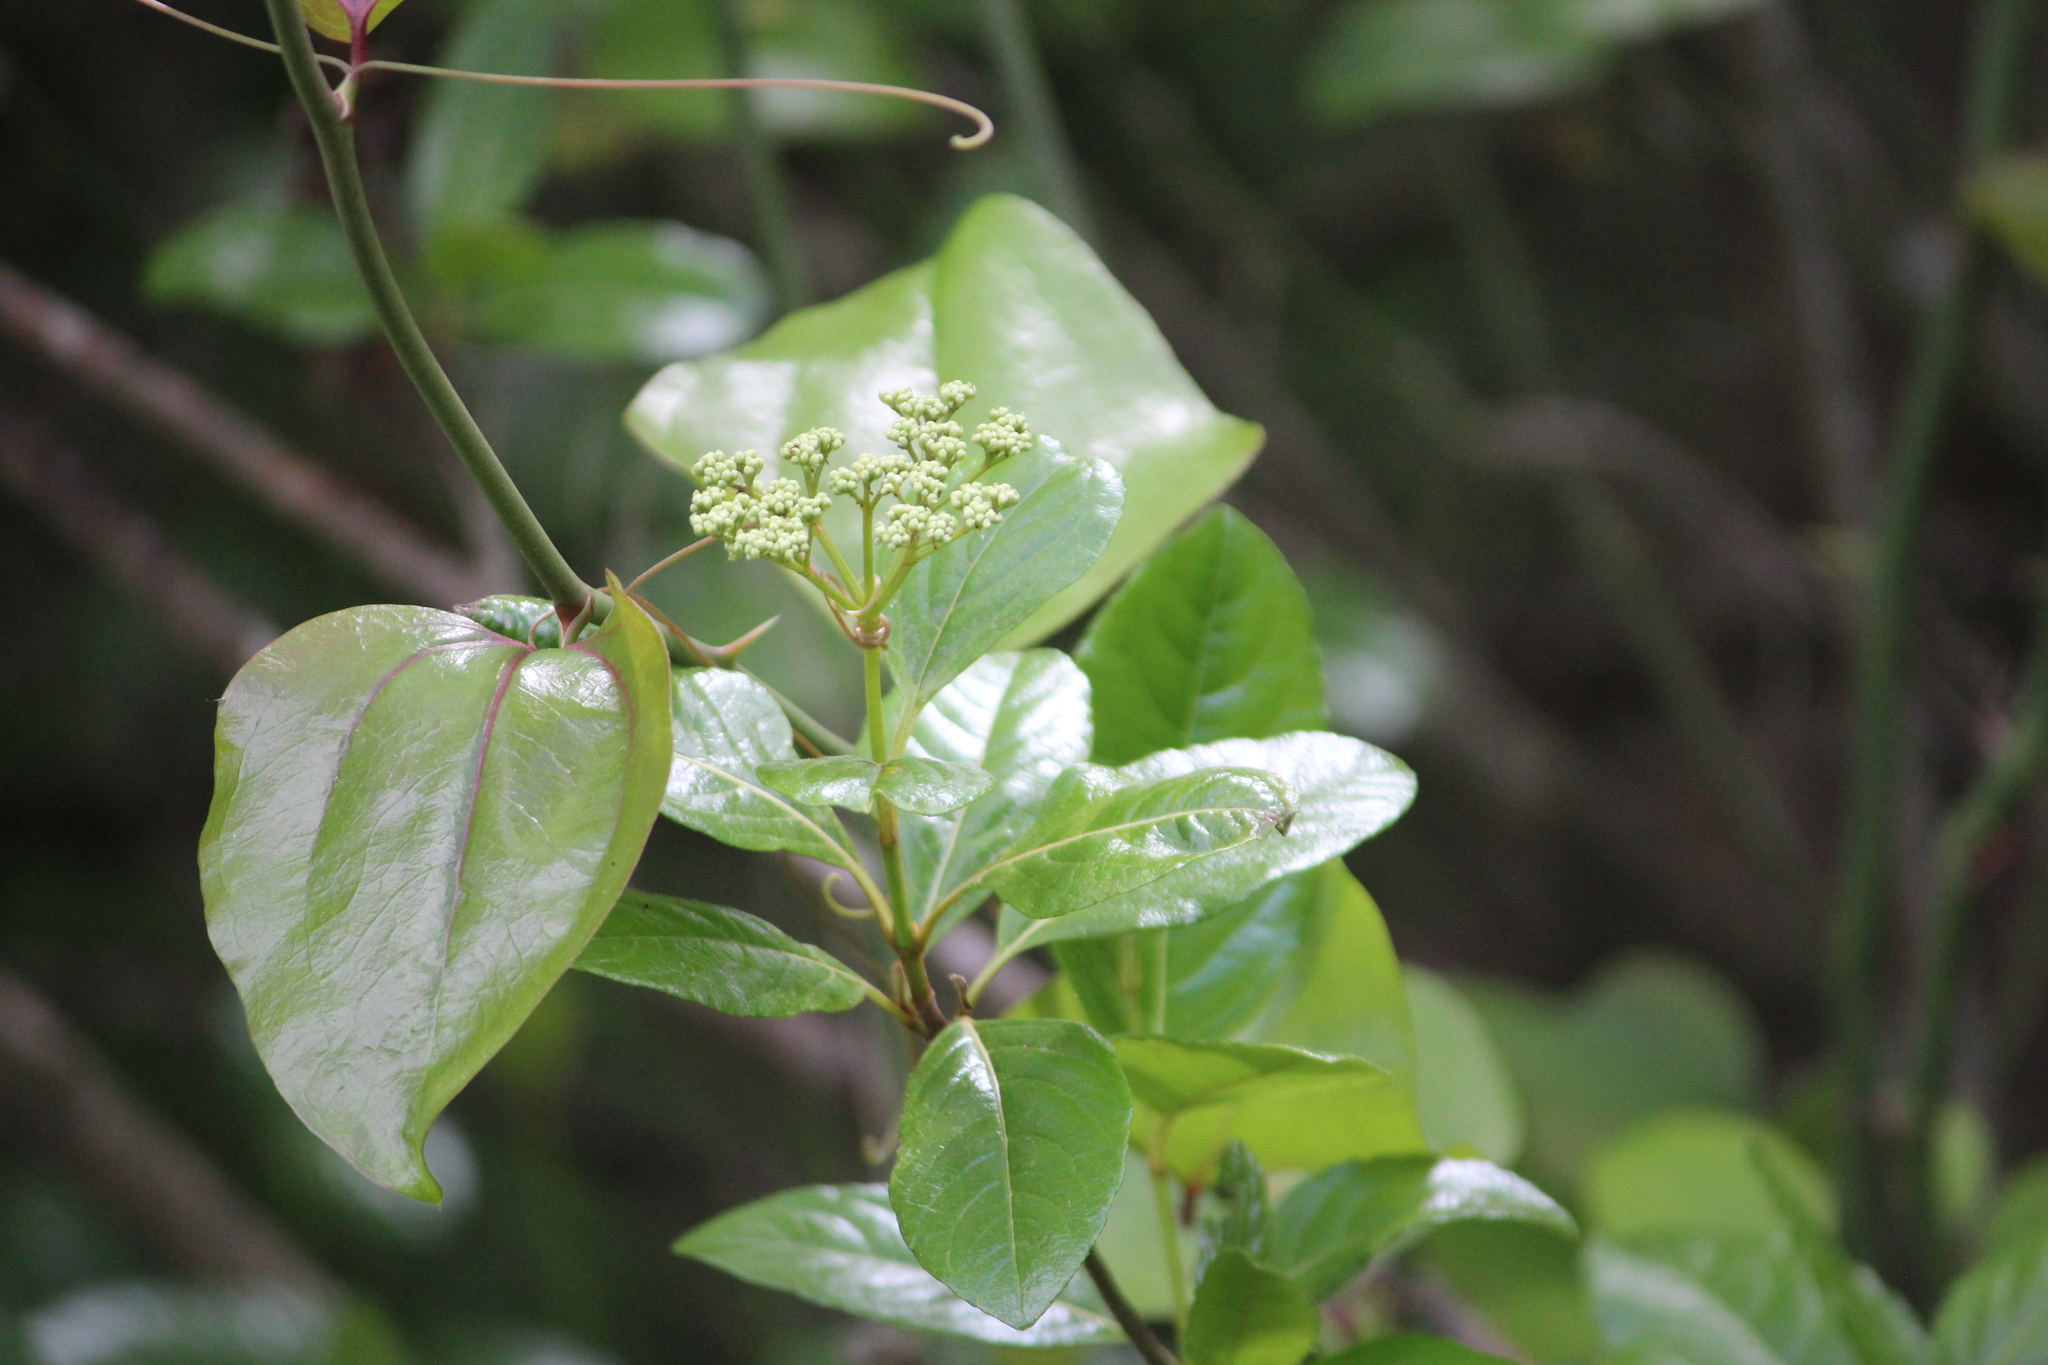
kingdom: Plantae
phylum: Tracheophyta
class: Magnoliopsida
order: Dipsacales
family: Viburnaceae
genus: Viburnum
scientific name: Viburnum nudum
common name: Possum haw
